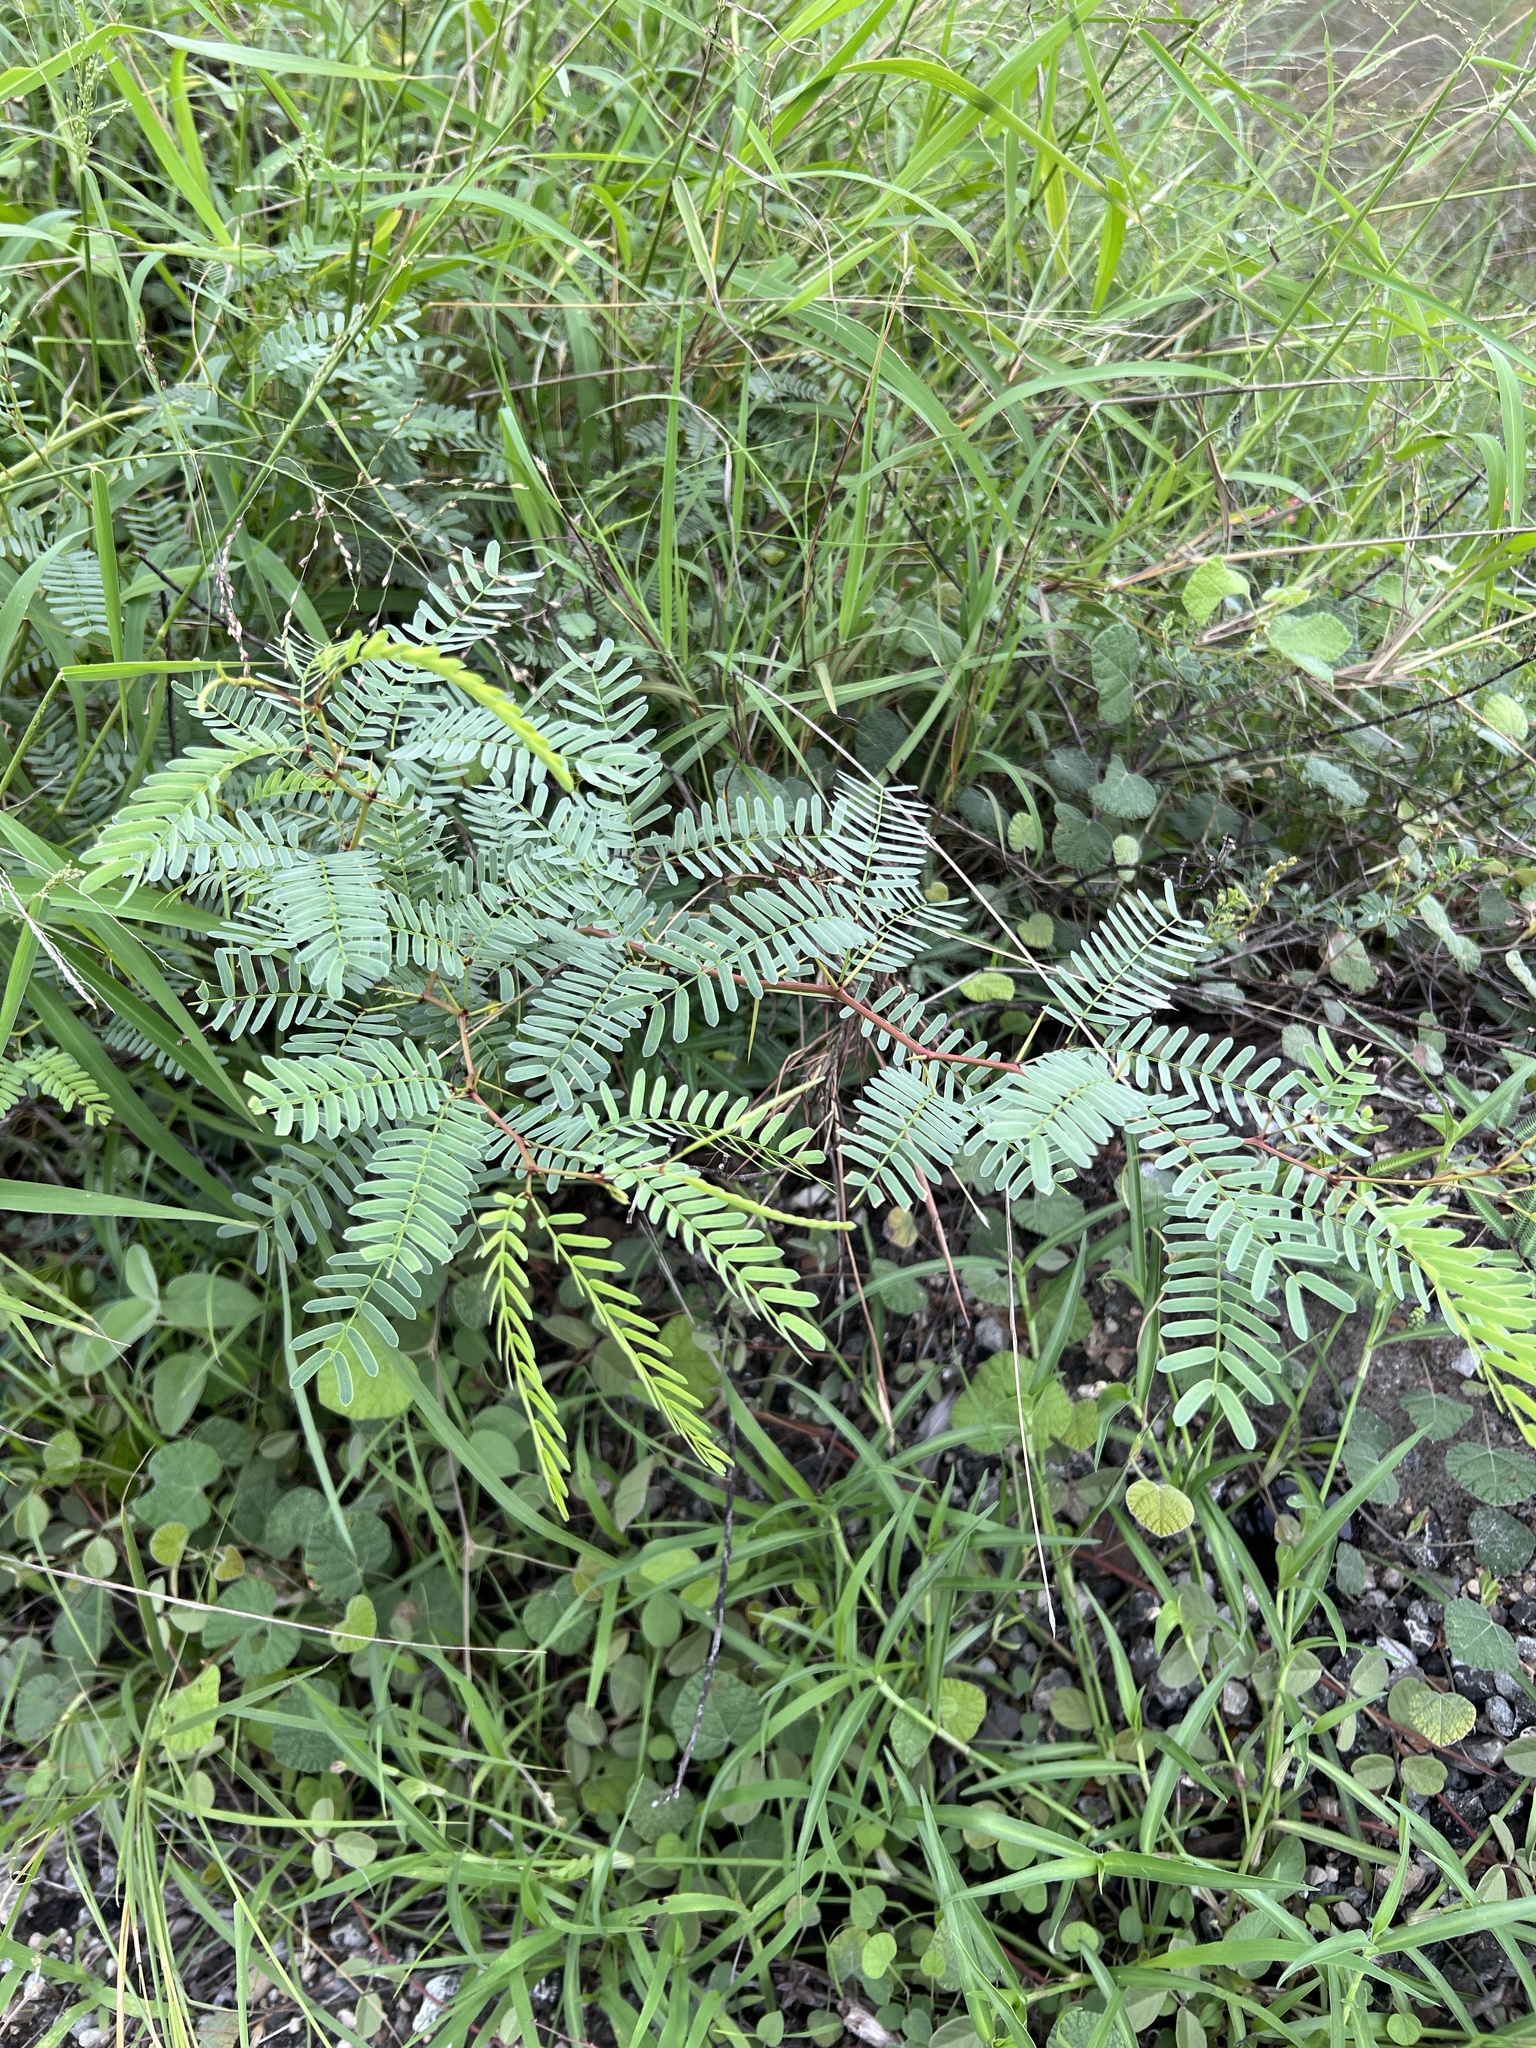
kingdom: Plantae
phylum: Tracheophyta
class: Magnoliopsida
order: Fabales
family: Fabaceae
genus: Prosopis
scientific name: Prosopis glandulosa
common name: Honey mesquite
